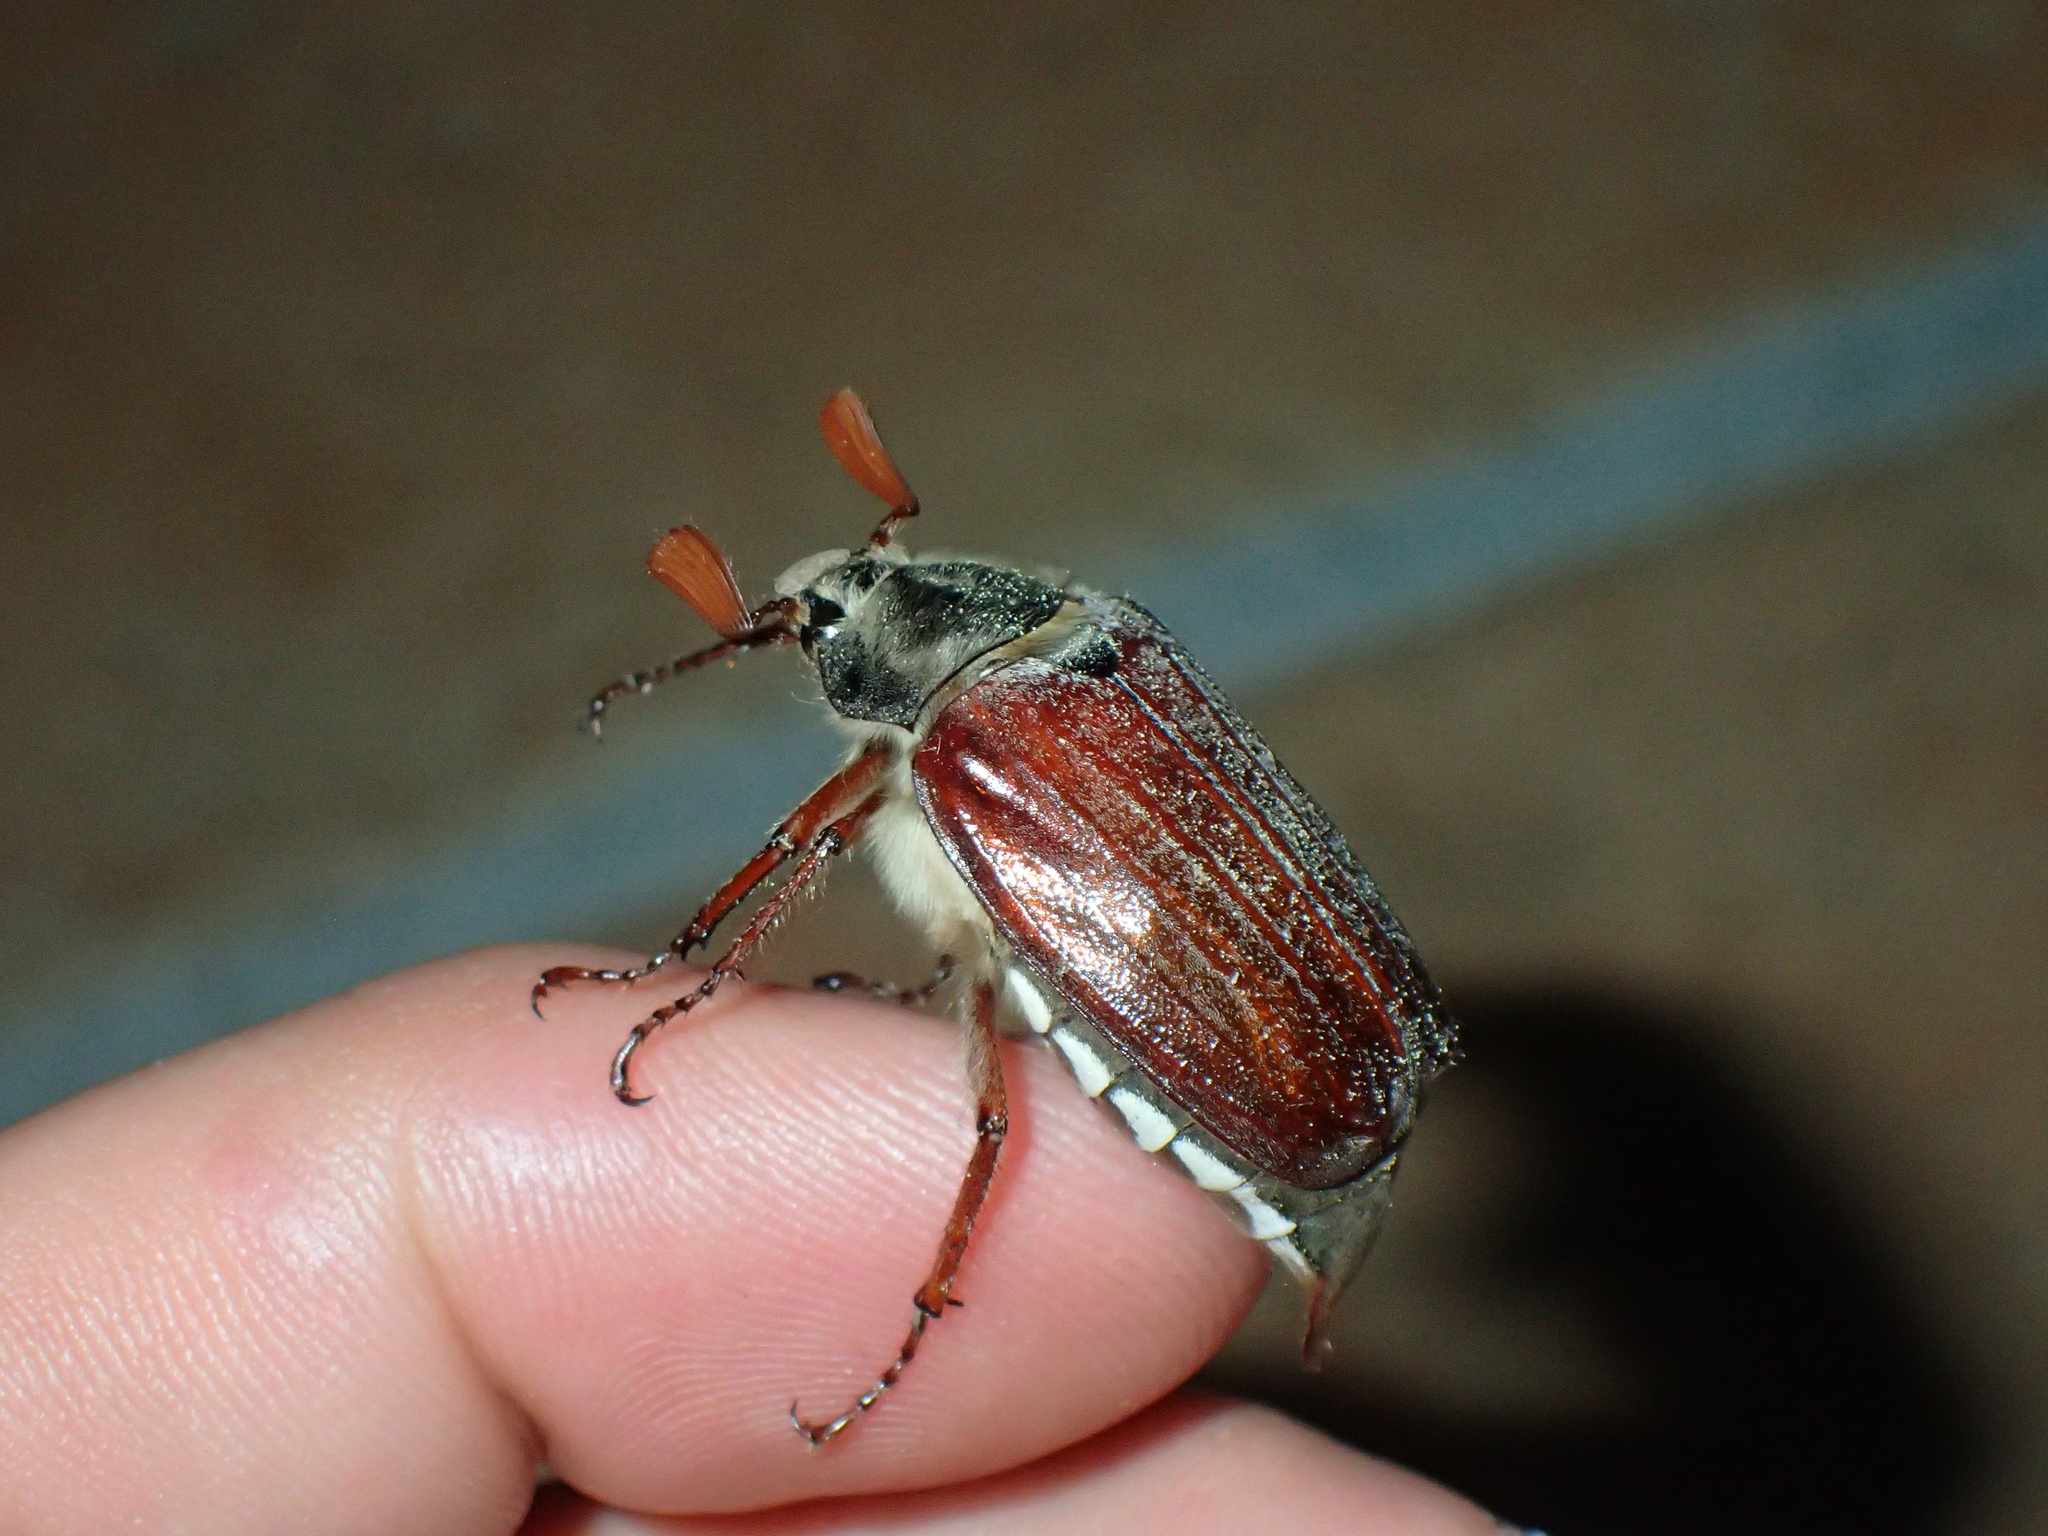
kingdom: Animalia
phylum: Arthropoda
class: Insecta
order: Coleoptera
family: Scarabaeidae
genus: Melolontha
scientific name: Melolontha melolontha
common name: Cockchafer maybeetle
